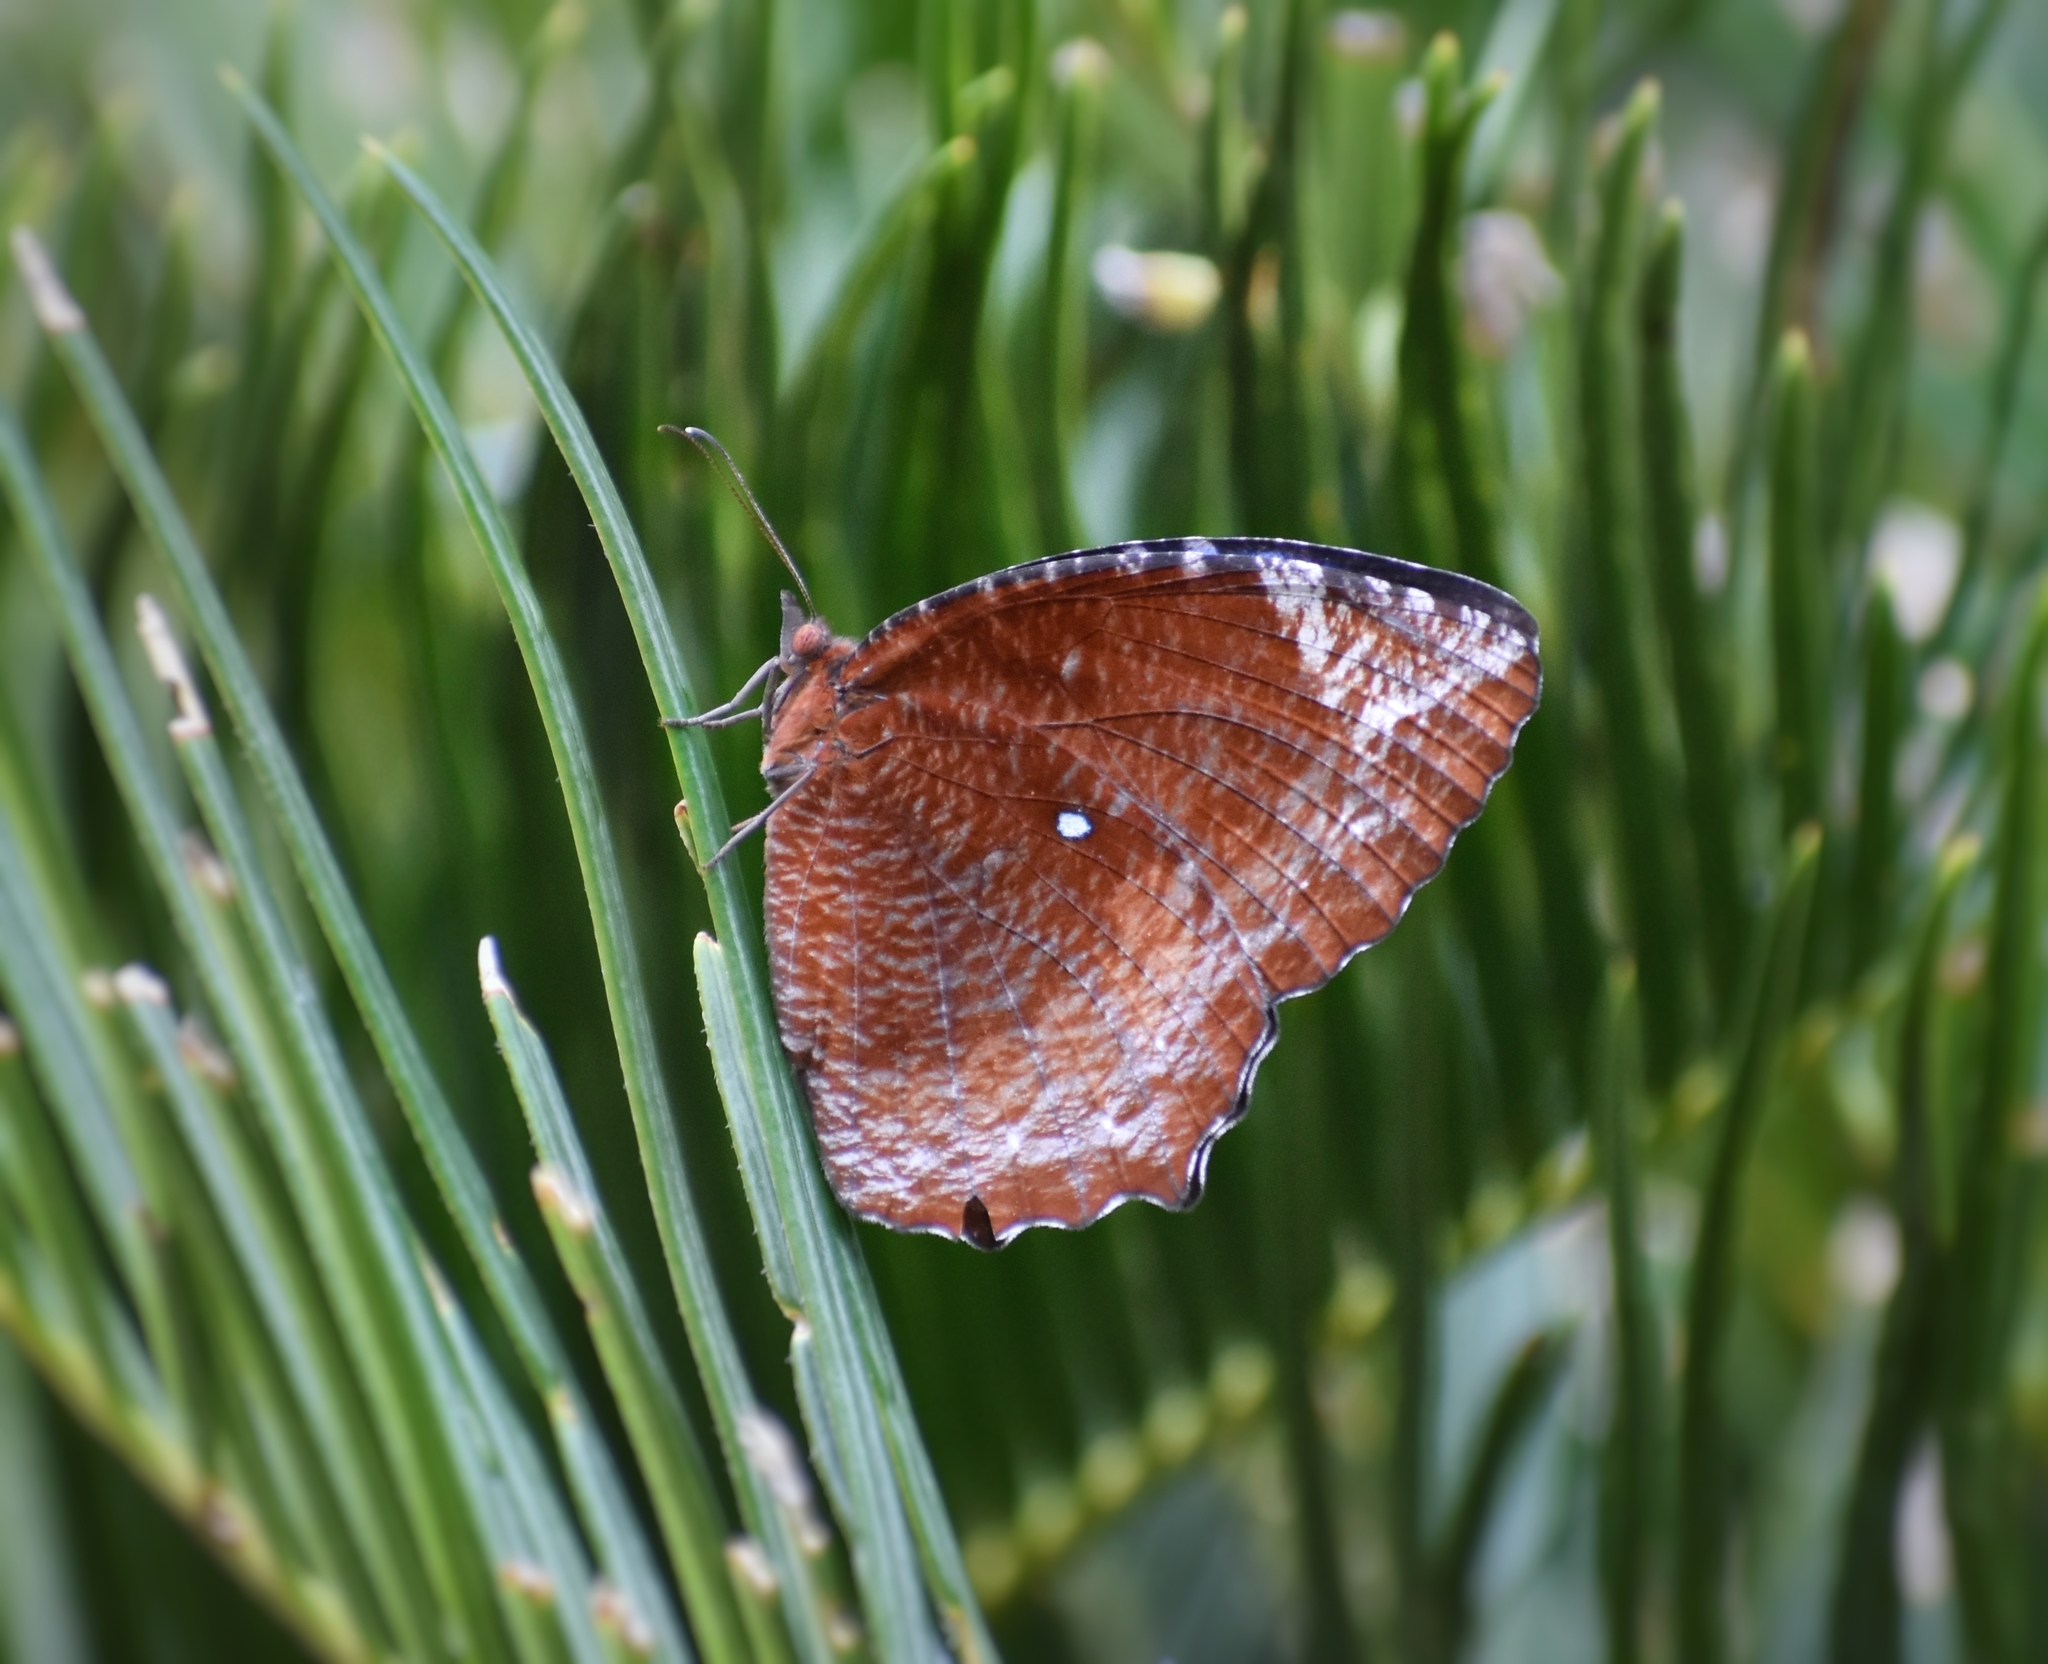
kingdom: Animalia
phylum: Arthropoda
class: Insecta
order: Lepidoptera
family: Nymphalidae
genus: Elymnias
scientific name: Elymnias hypermnestra
